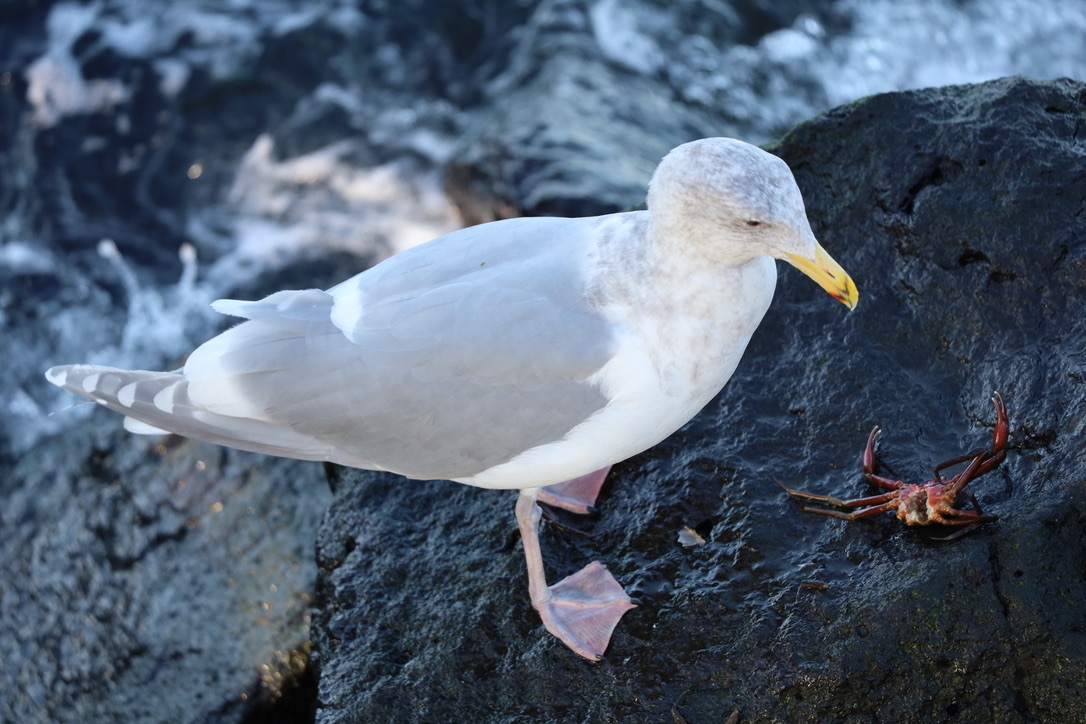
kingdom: Animalia
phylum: Chordata
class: Aves
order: Charadriiformes
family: Laridae
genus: Larus
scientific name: Larus
